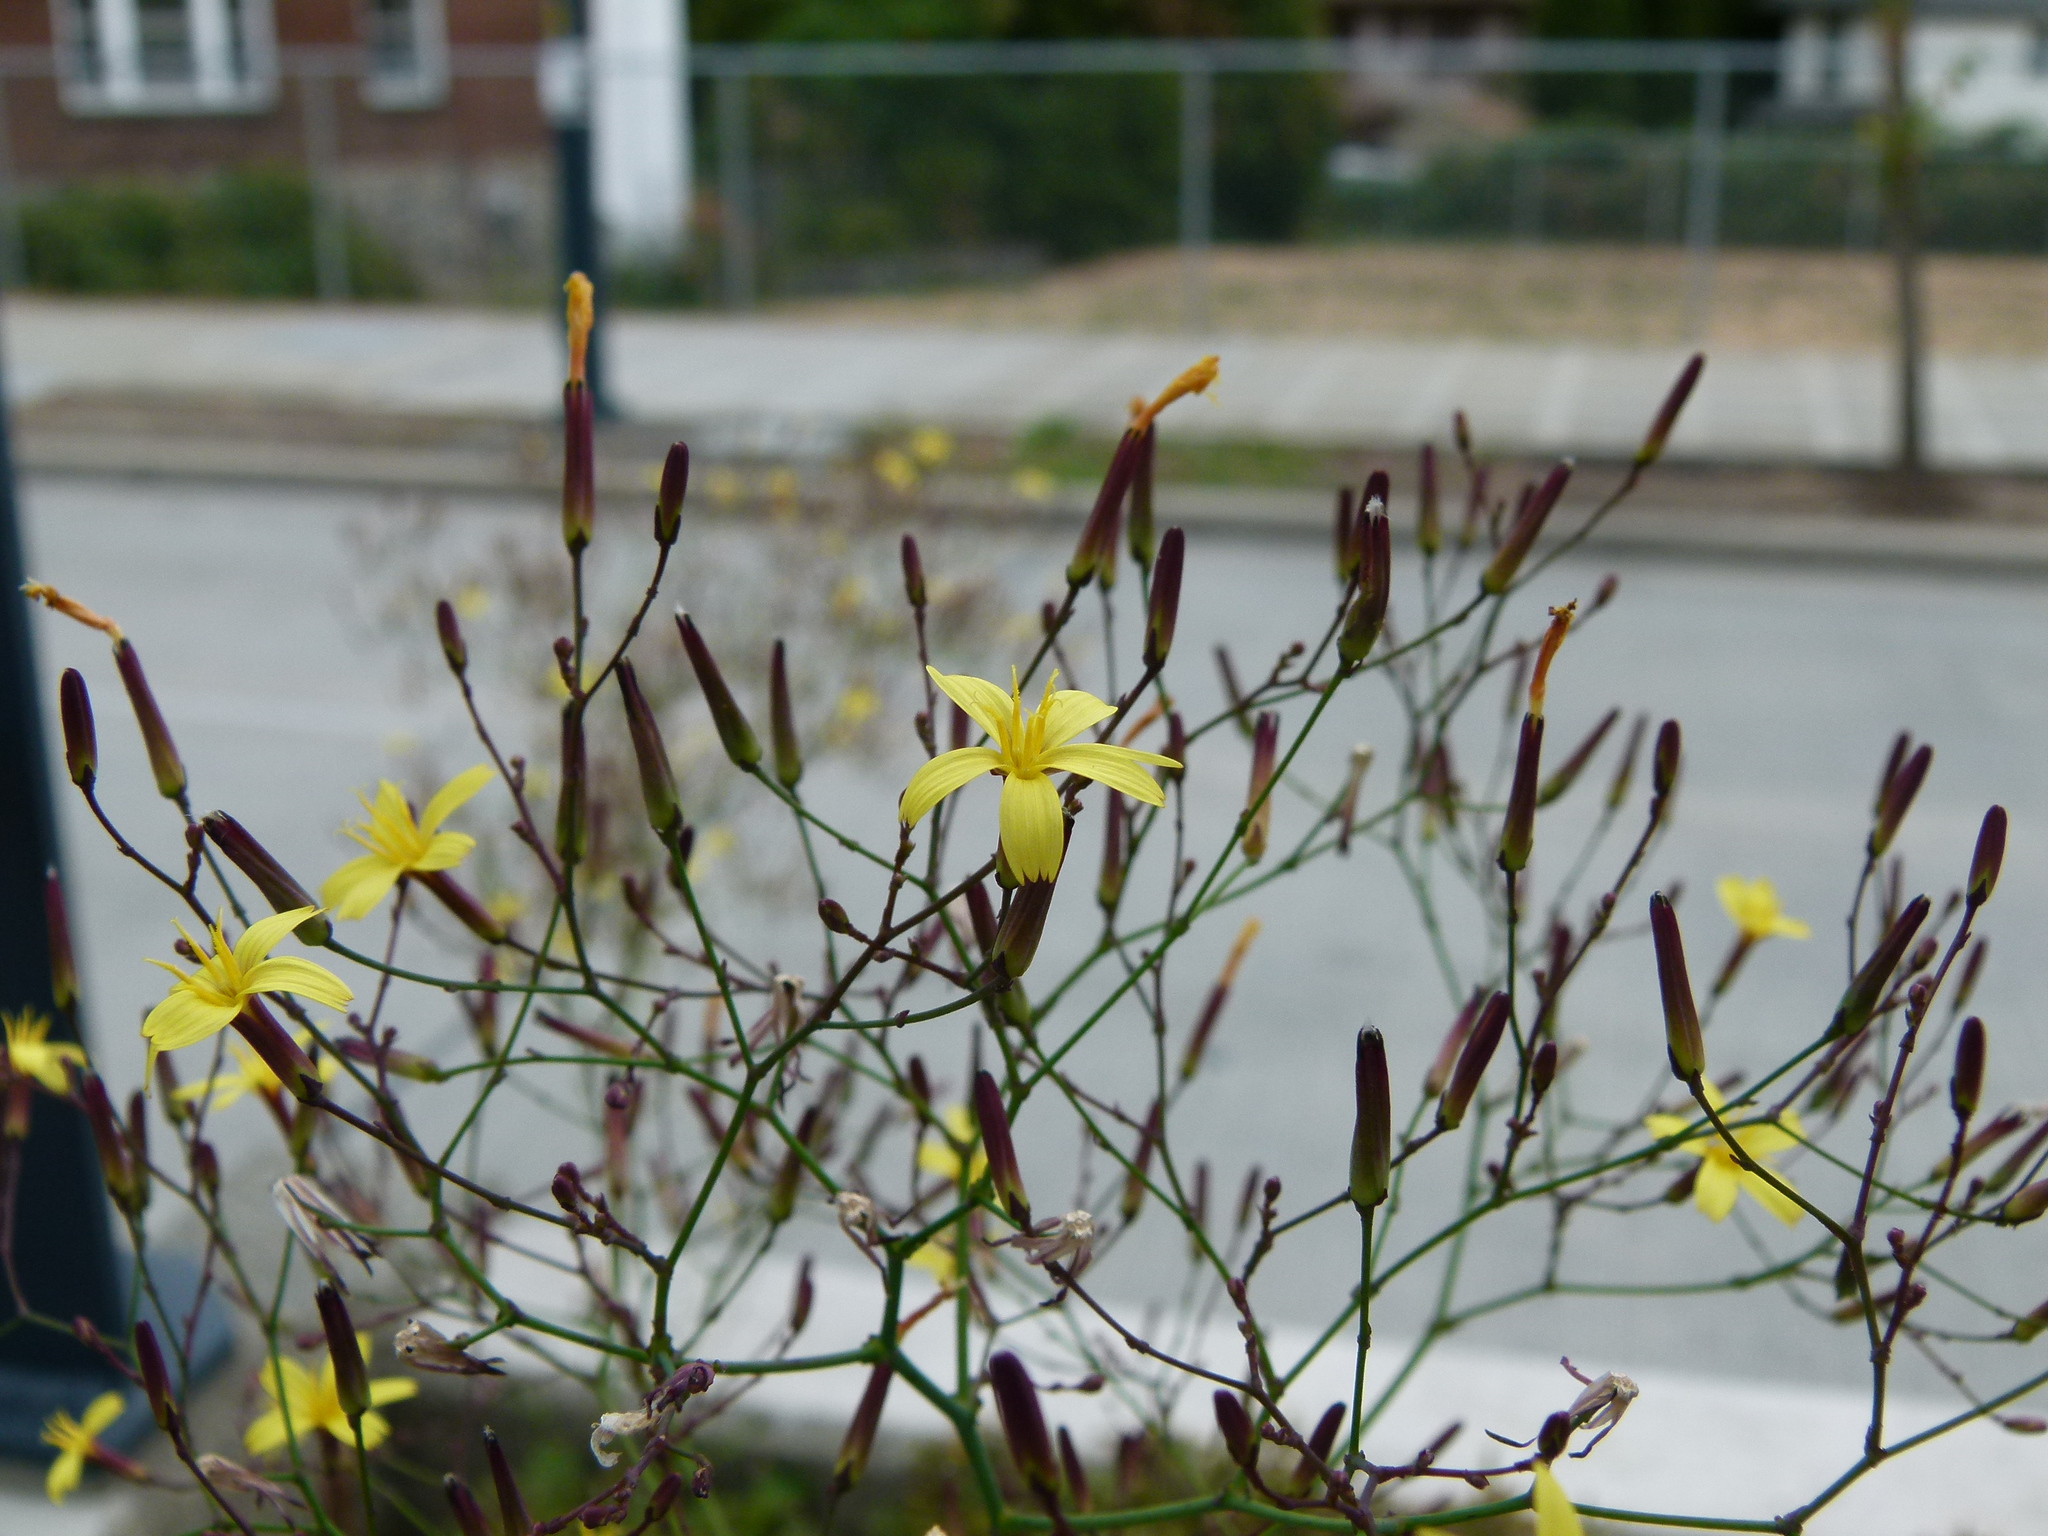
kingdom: Plantae
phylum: Tracheophyta
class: Magnoliopsida
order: Asterales
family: Asteraceae
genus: Mycelis
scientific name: Mycelis muralis
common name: Wall lettuce
